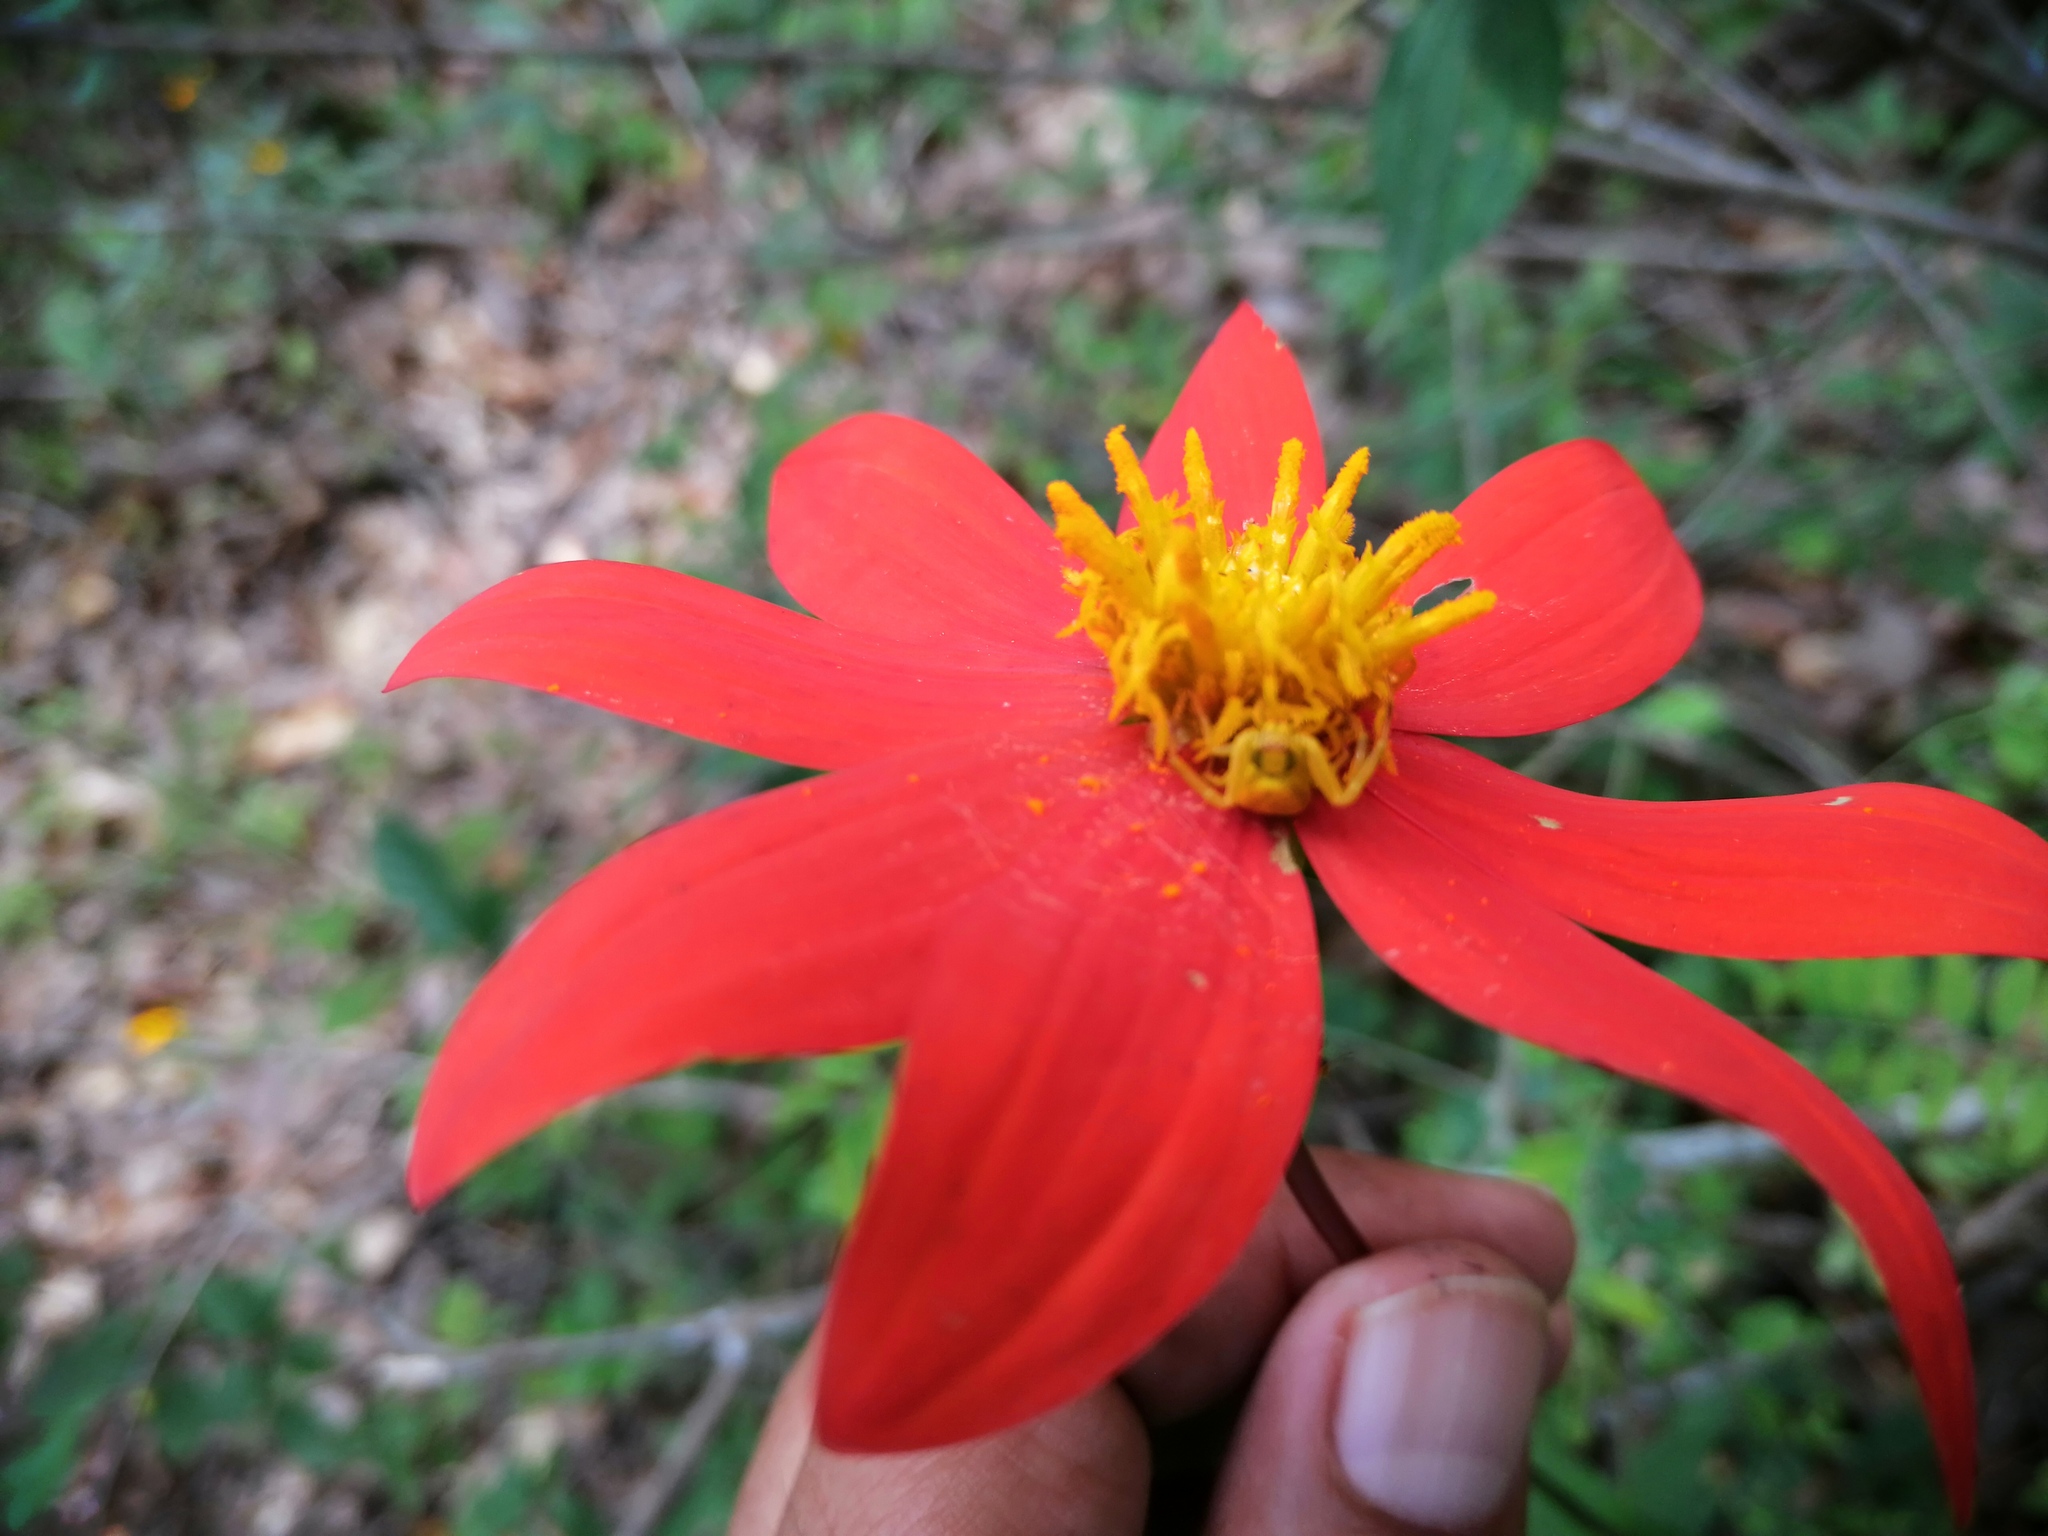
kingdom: Plantae
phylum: Tracheophyta
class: Magnoliopsida
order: Asterales
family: Asteraceae
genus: Dahlia
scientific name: Dahlia coccinea
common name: Red dahlia
